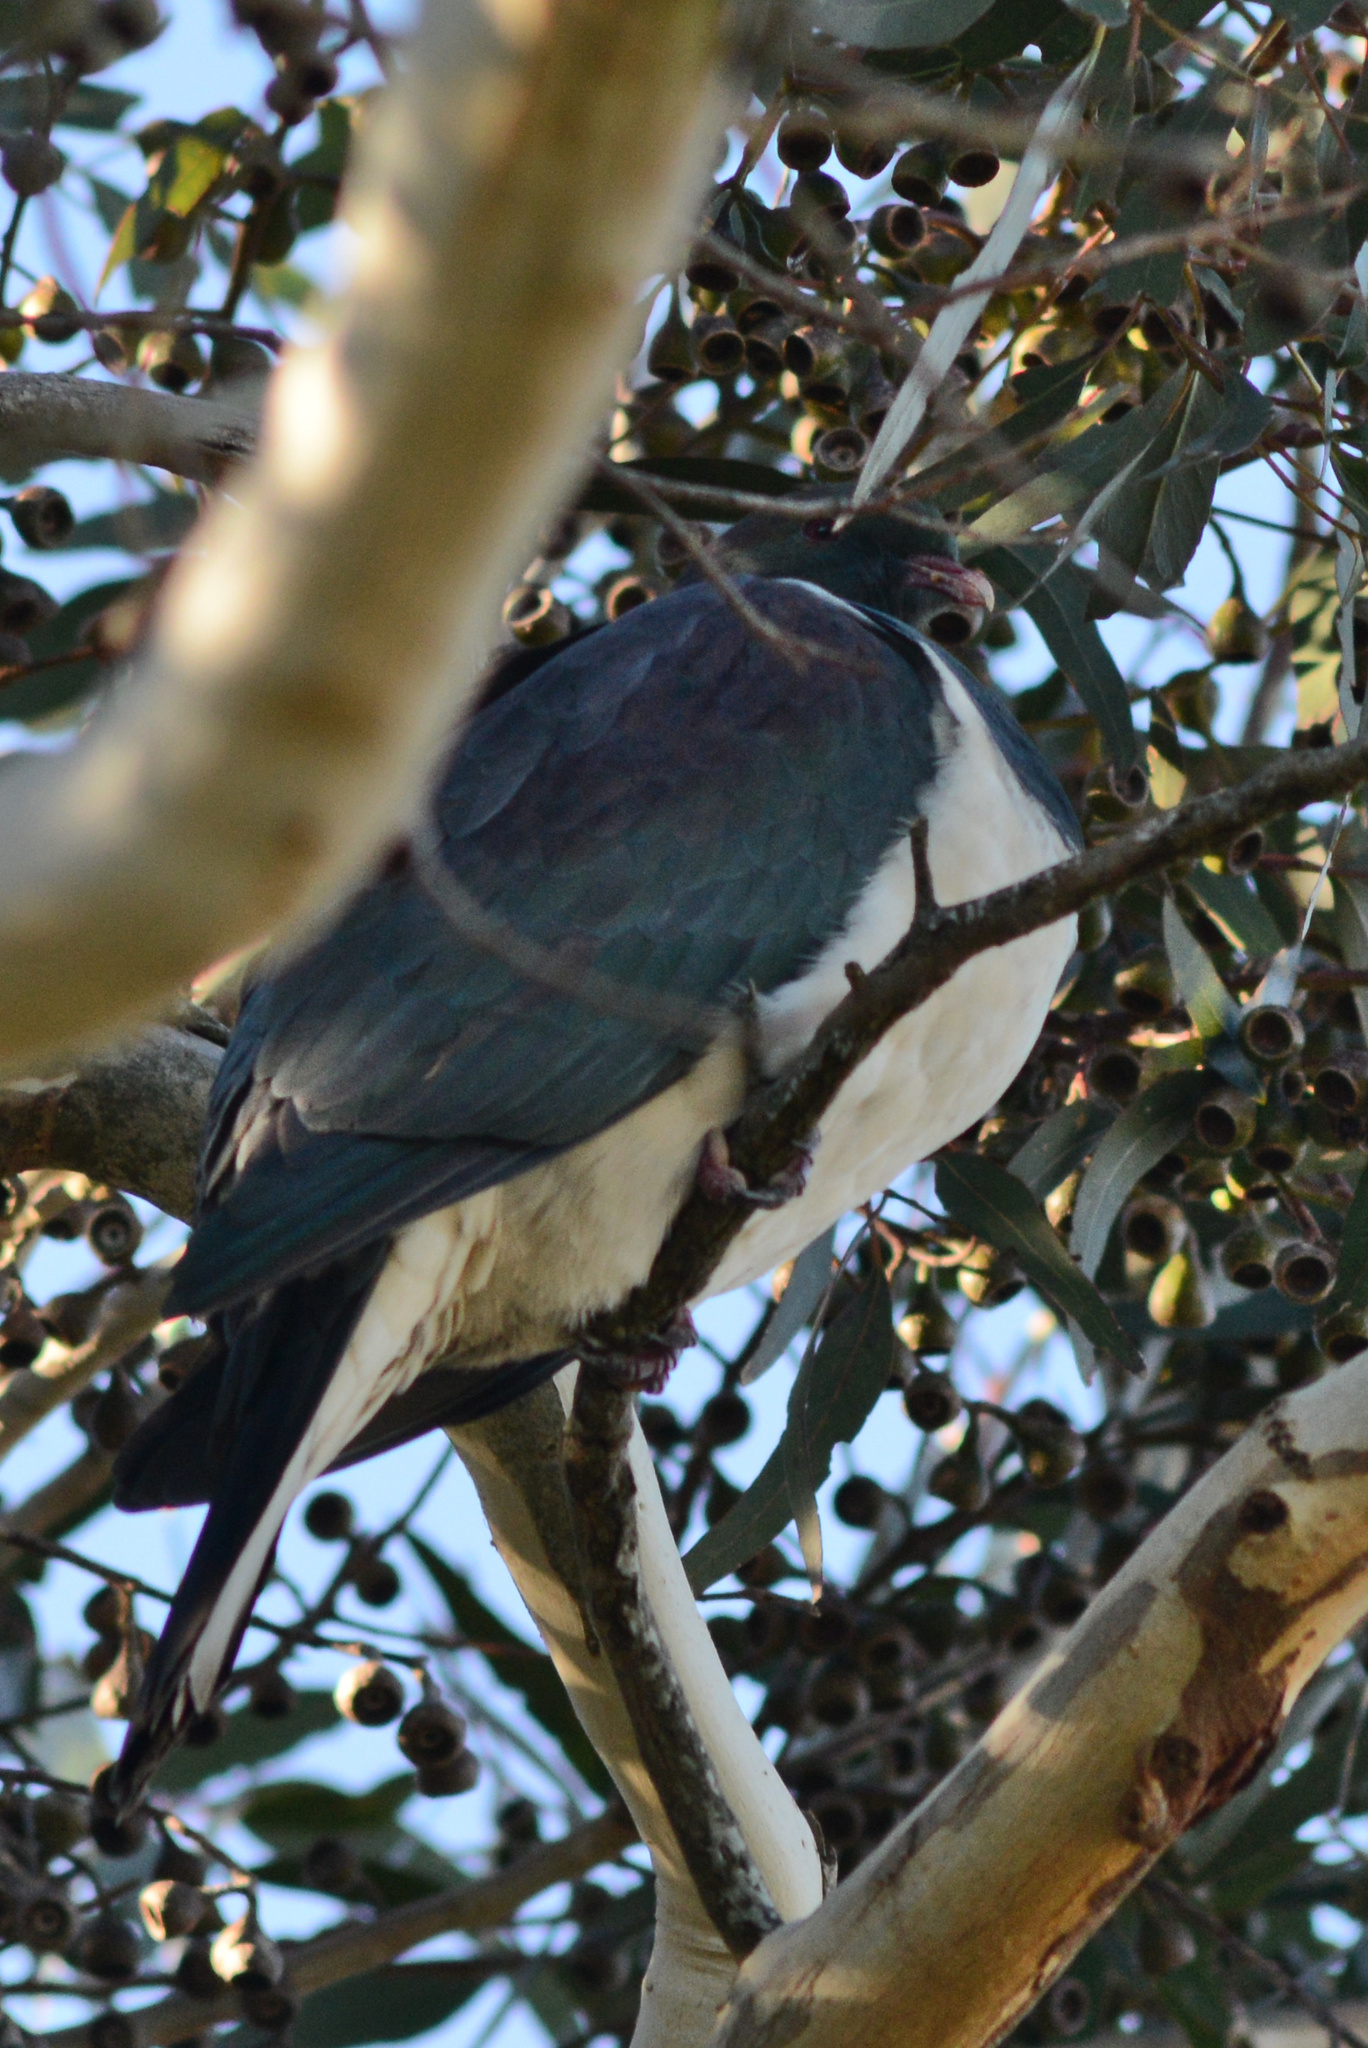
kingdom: Animalia
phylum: Chordata
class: Aves
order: Columbiformes
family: Columbidae
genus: Hemiphaga
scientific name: Hemiphaga novaeseelandiae
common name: New zealand pigeon
